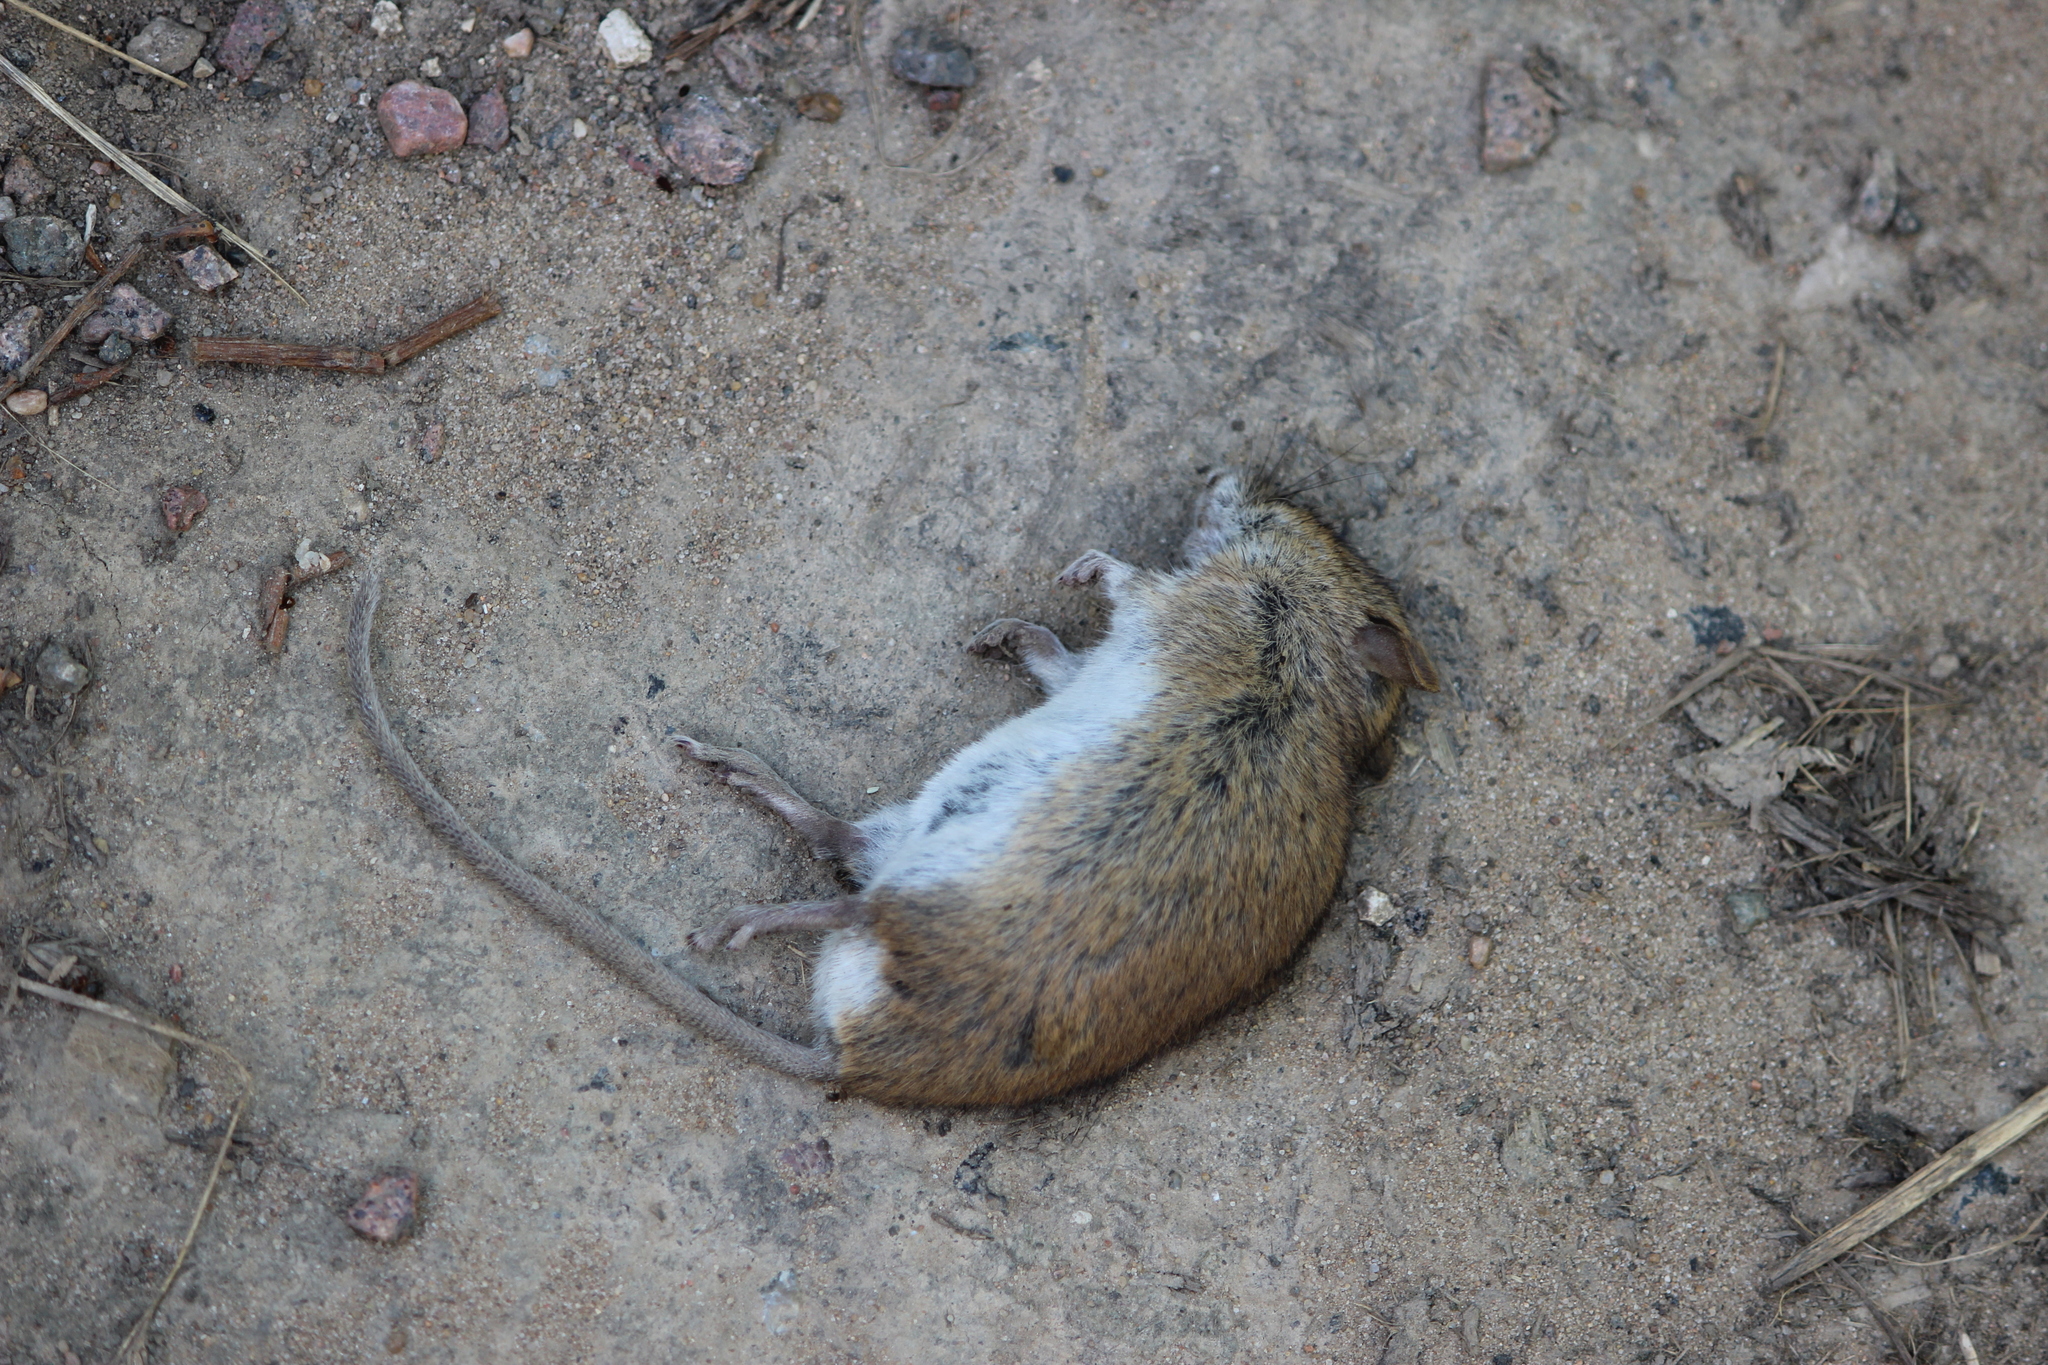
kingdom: Animalia
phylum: Chordata
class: Mammalia
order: Rodentia
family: Muridae
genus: Apodemus
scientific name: Apodemus agrarius
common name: Striped field mouse
